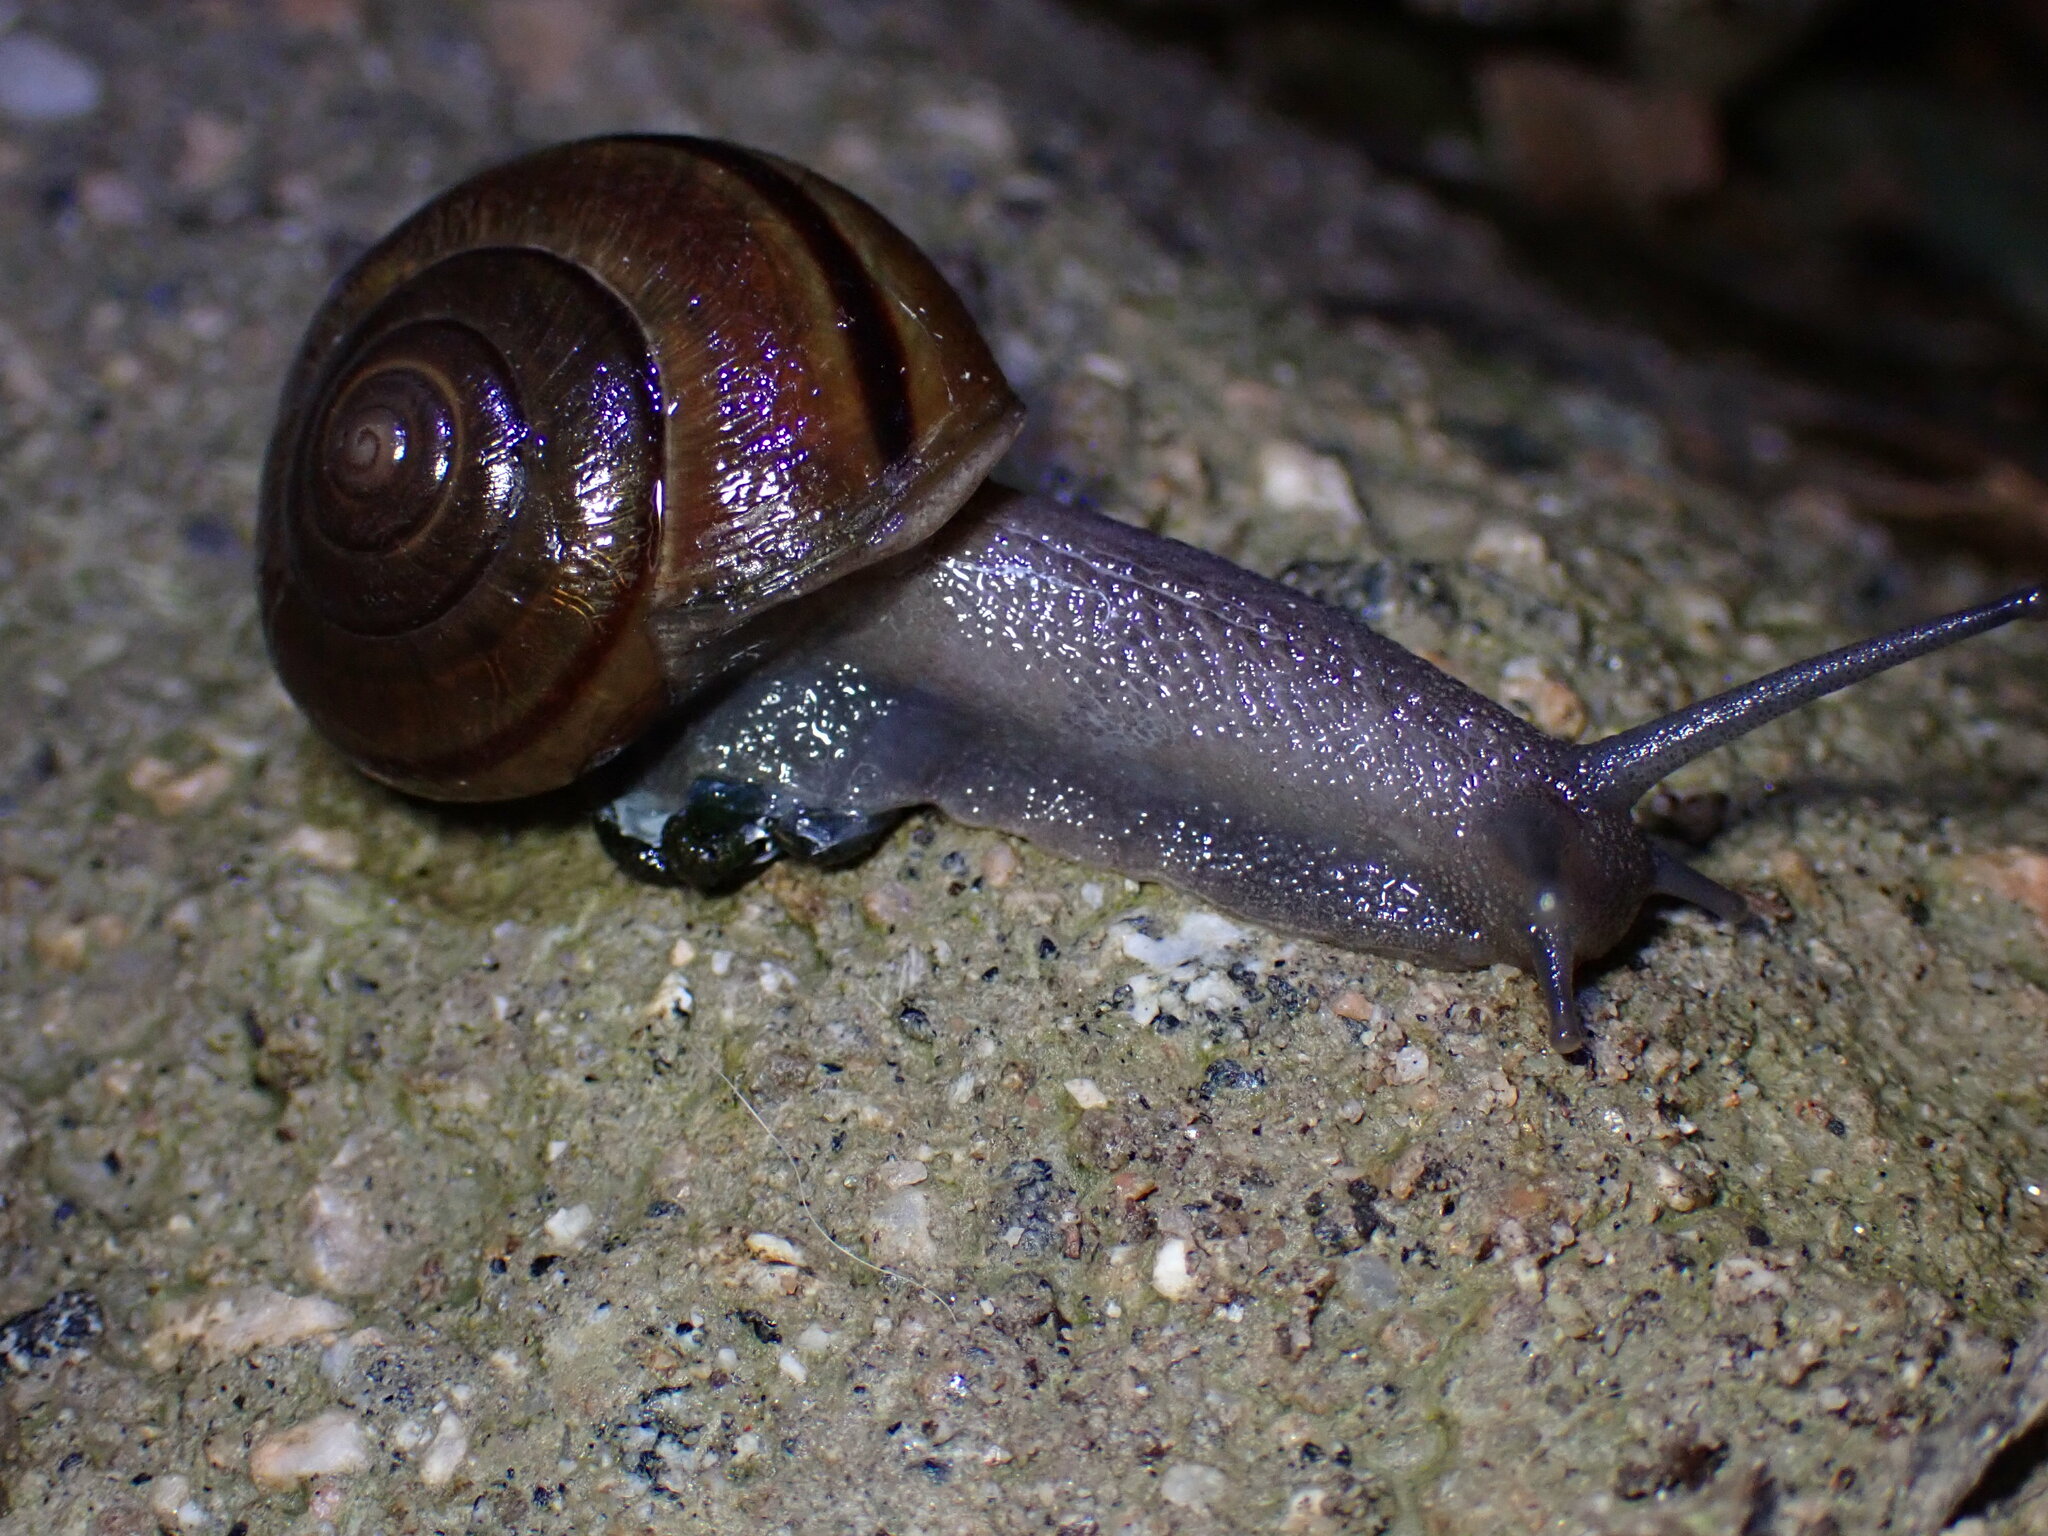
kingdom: Animalia
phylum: Mollusca
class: Gastropoda
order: Stylommatophora
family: Xanthonychidae
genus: Helminthoglypta
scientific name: Helminthoglypta tudiculata
